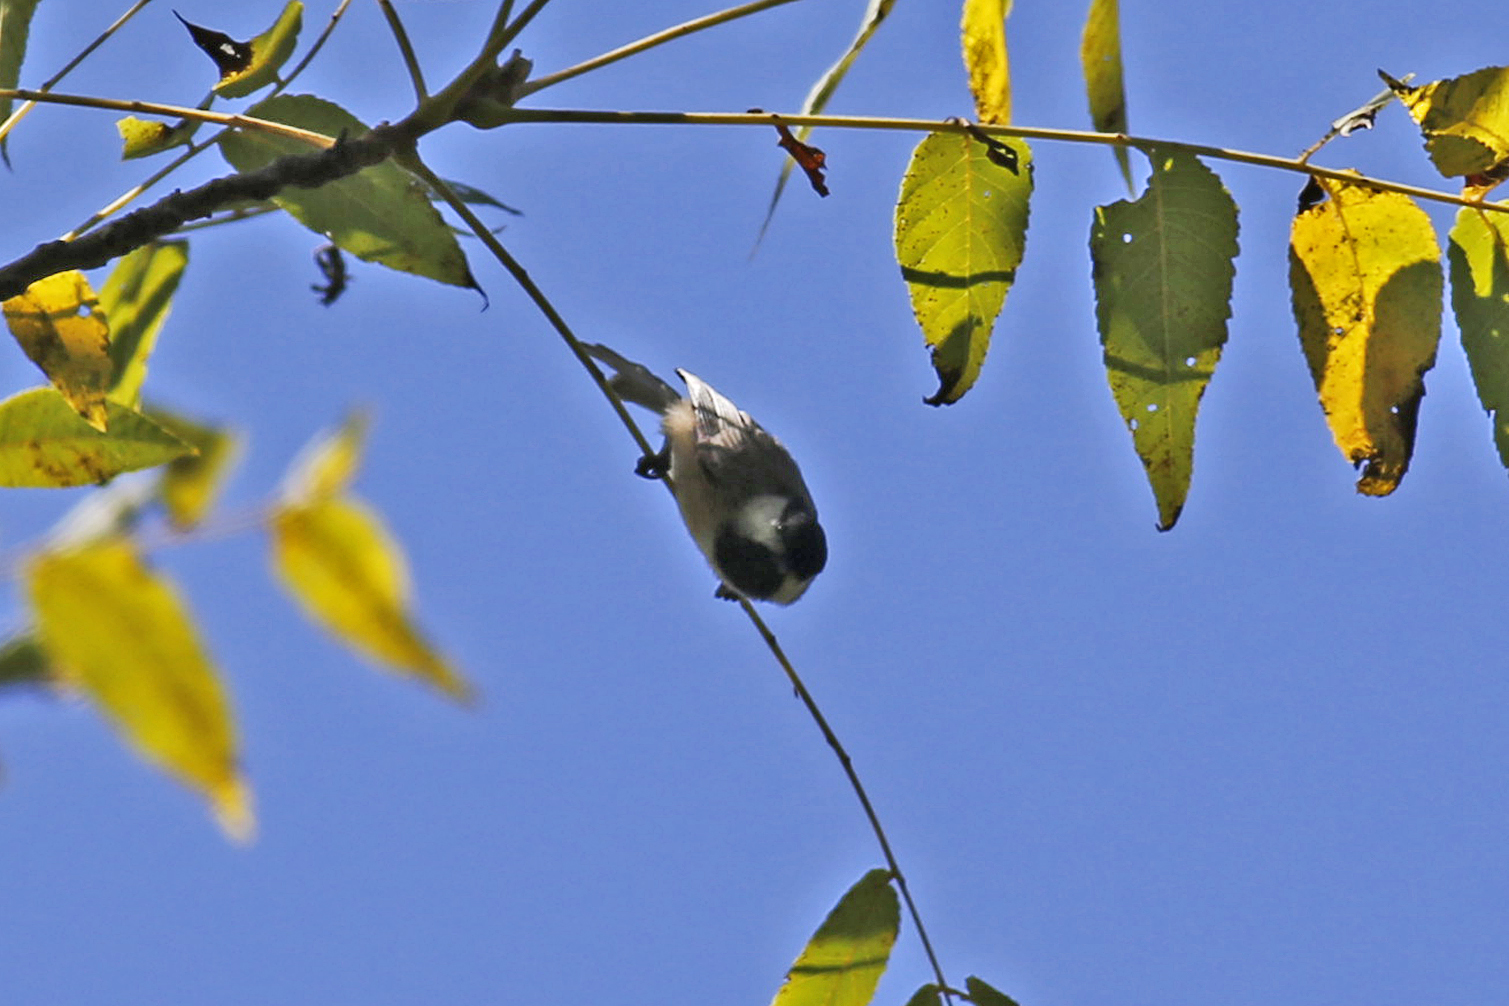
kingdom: Animalia
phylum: Chordata
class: Aves
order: Passeriformes
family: Paridae
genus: Poecile
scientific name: Poecile carolinensis
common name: Carolina chickadee
